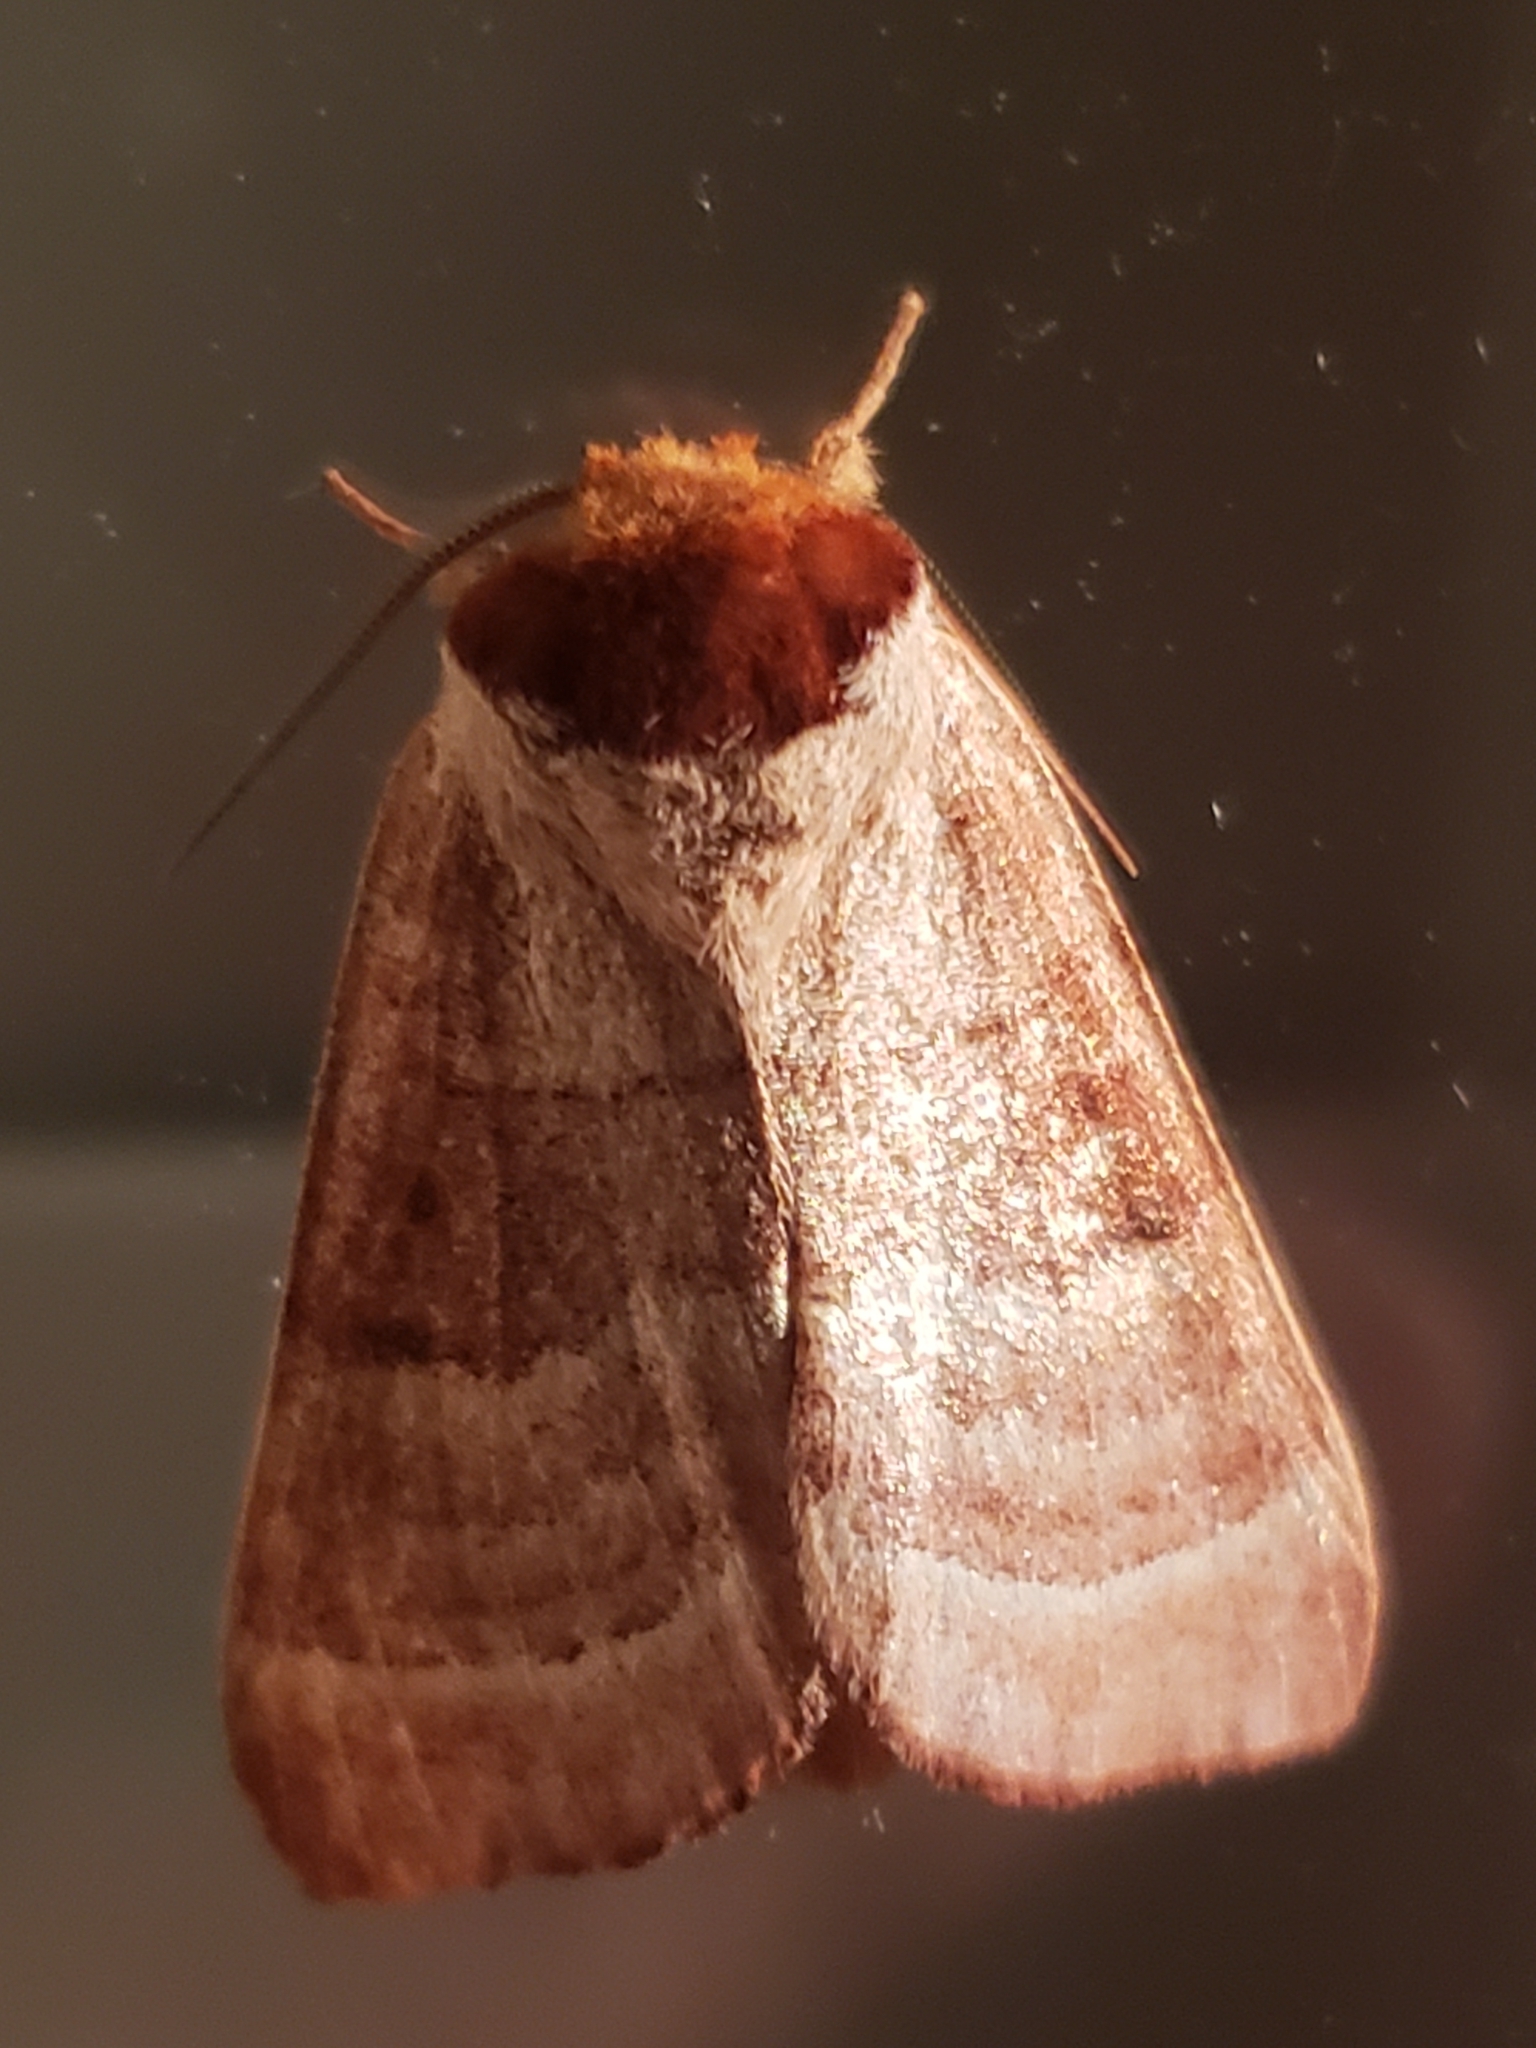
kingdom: Animalia
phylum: Arthropoda
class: Insecta
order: Lepidoptera
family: Notodontidae
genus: Datana
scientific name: Datana integerrima
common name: Walnut caterpillar
